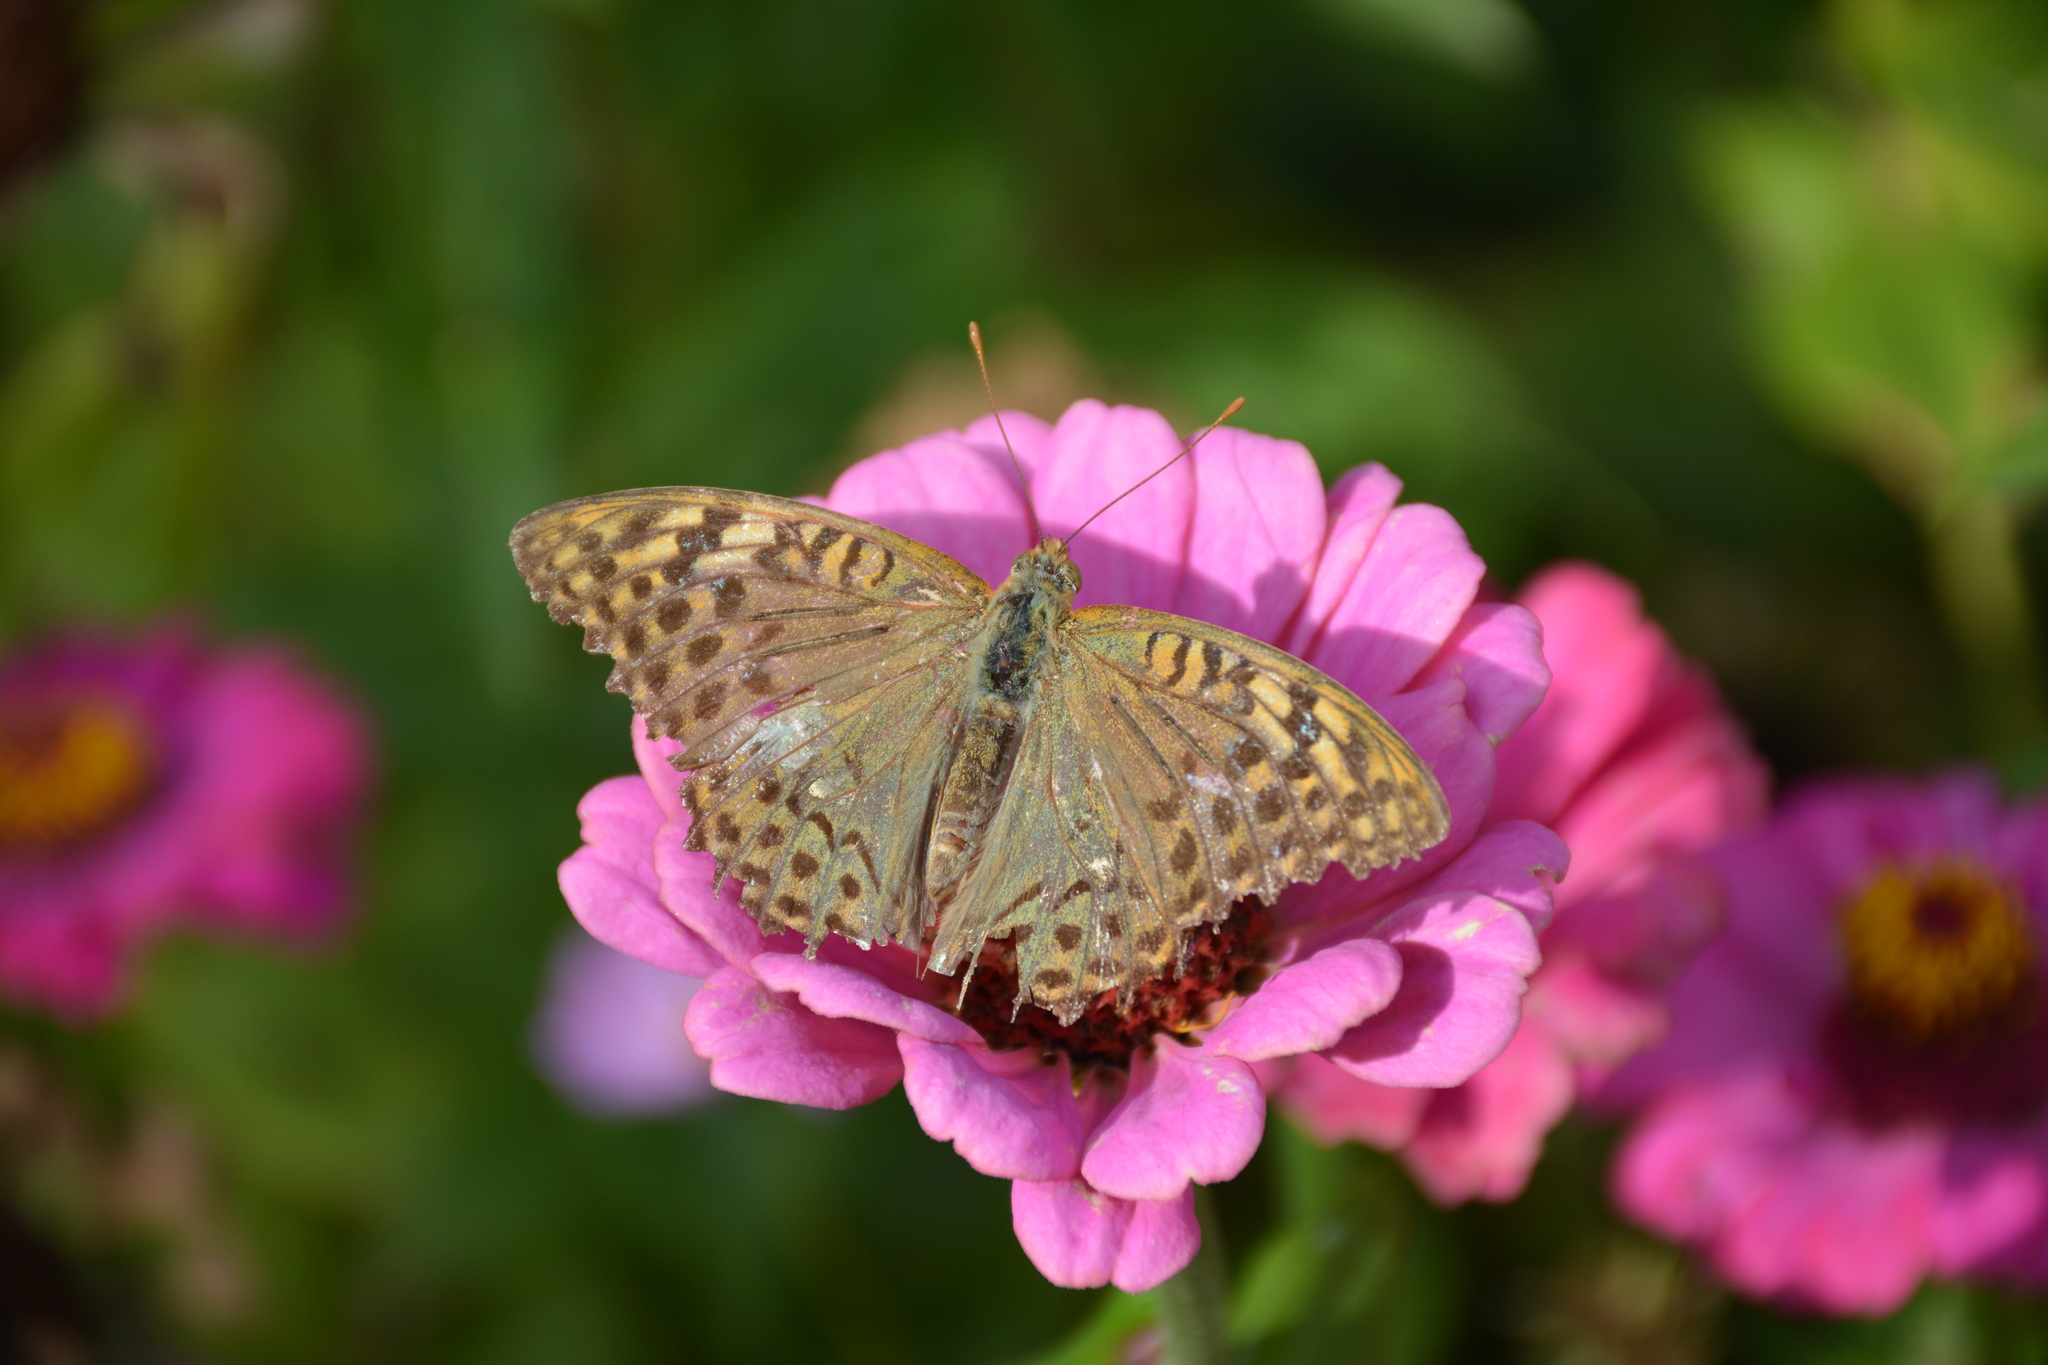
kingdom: Animalia
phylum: Arthropoda
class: Insecta
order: Lepidoptera
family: Nymphalidae
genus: Damora
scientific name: Damora pandora
